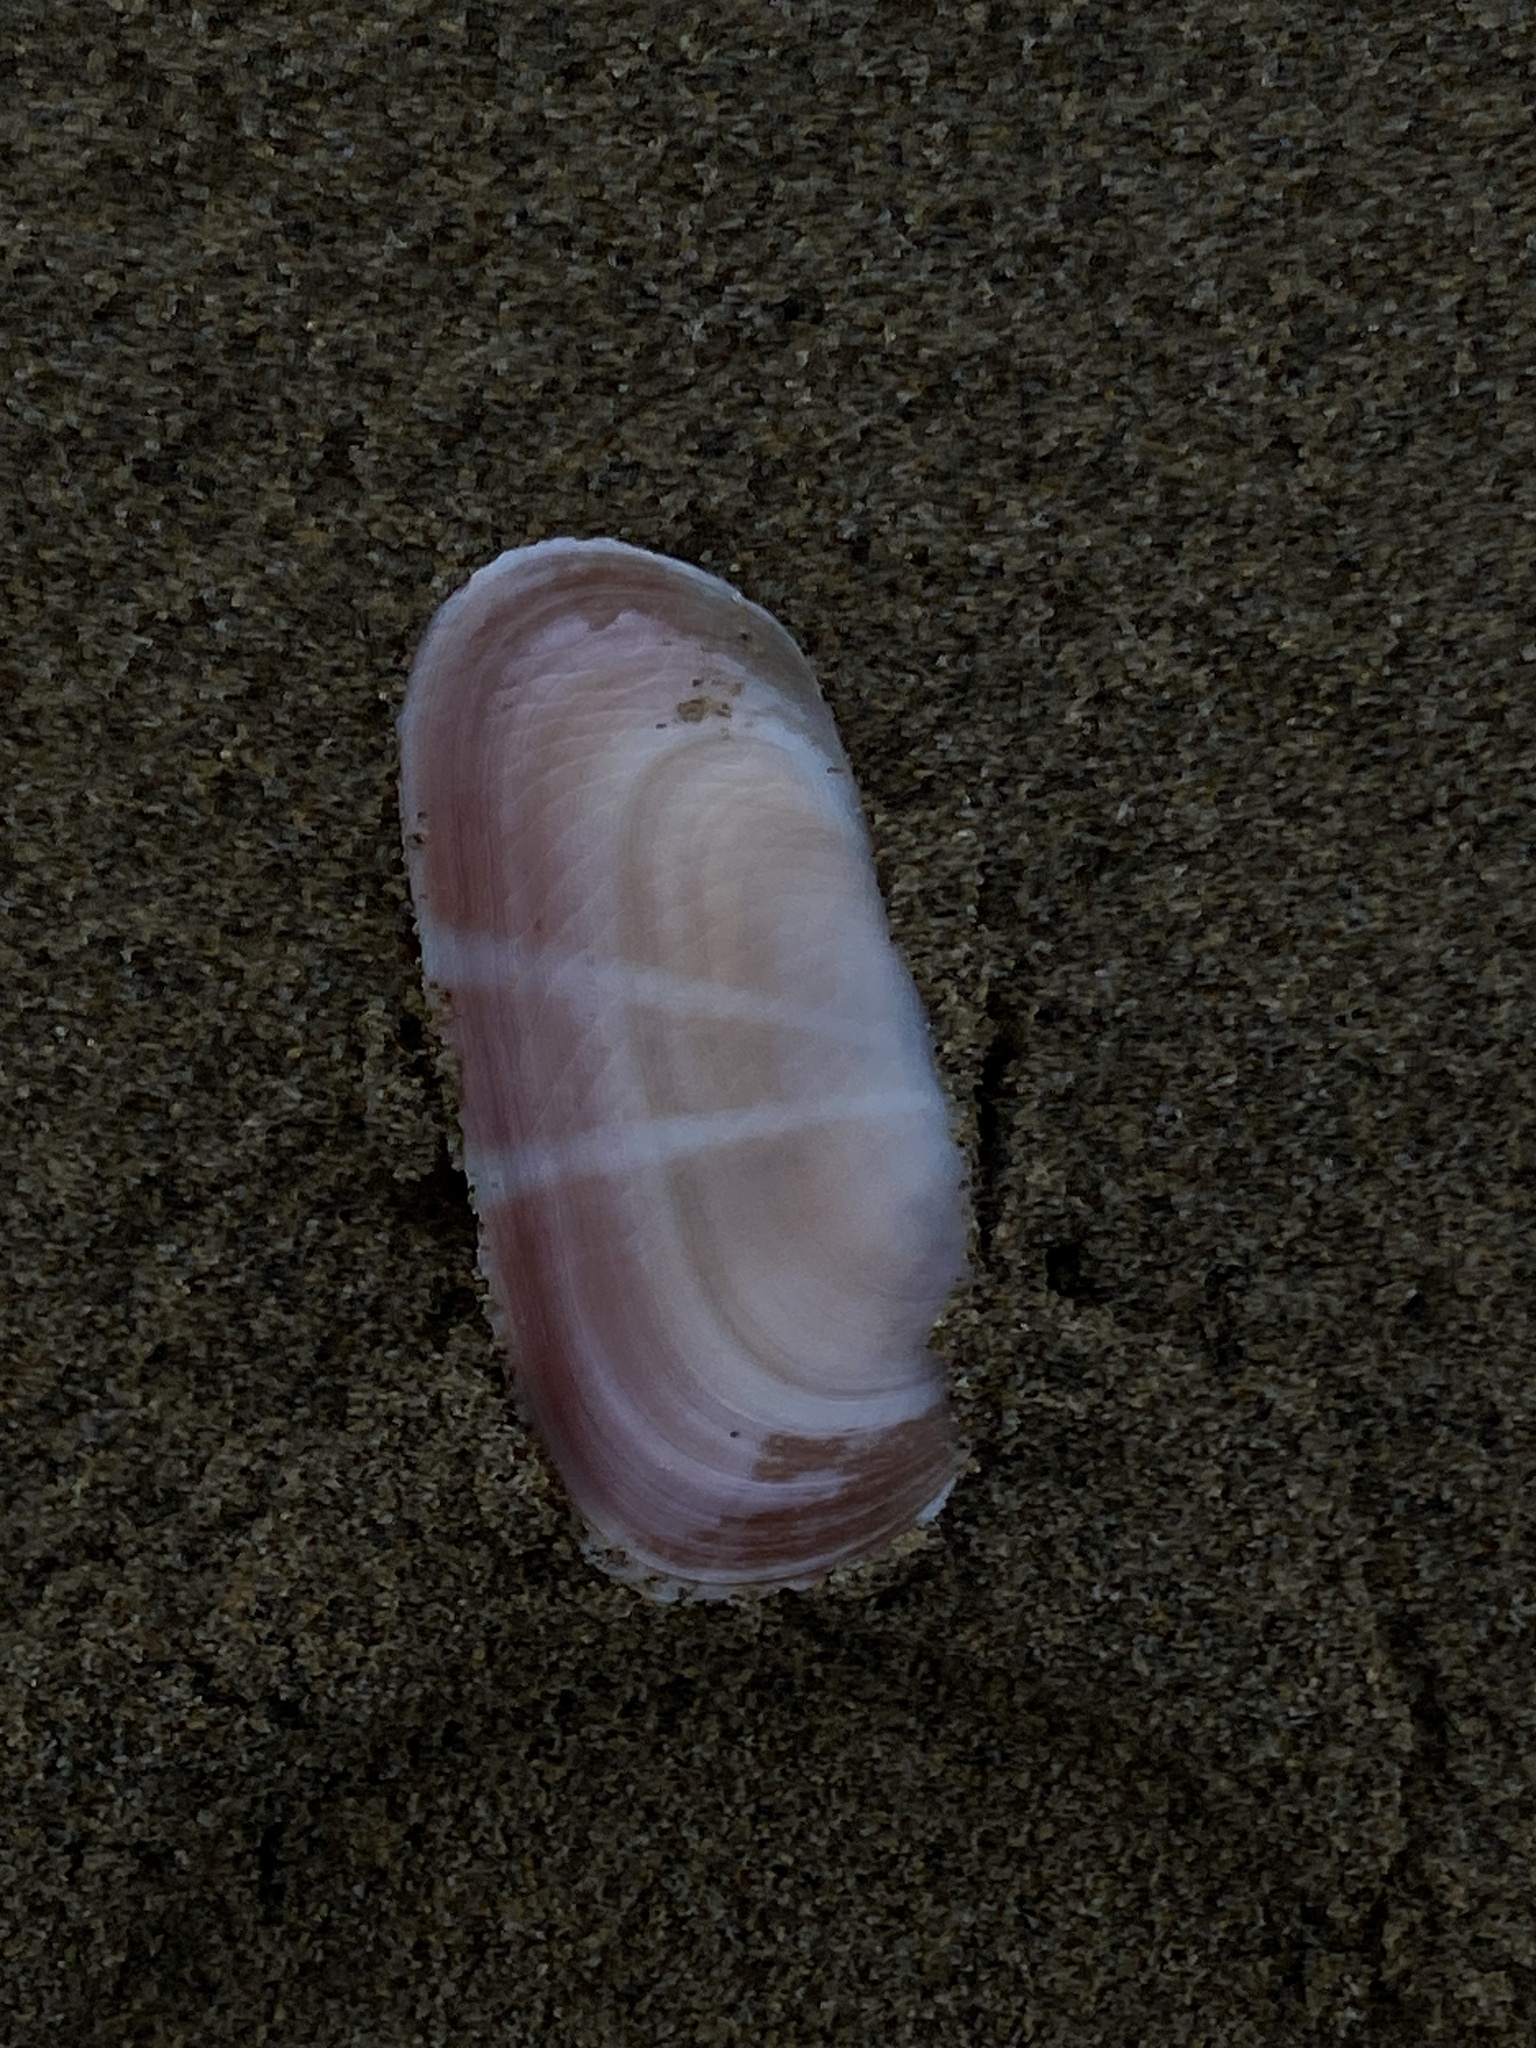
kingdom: Animalia
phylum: Mollusca
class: Bivalvia
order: Cardiida
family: Solecurtidae
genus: Solecurtus
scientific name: Solecurtus strigilatus
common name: Rosy razor clam
